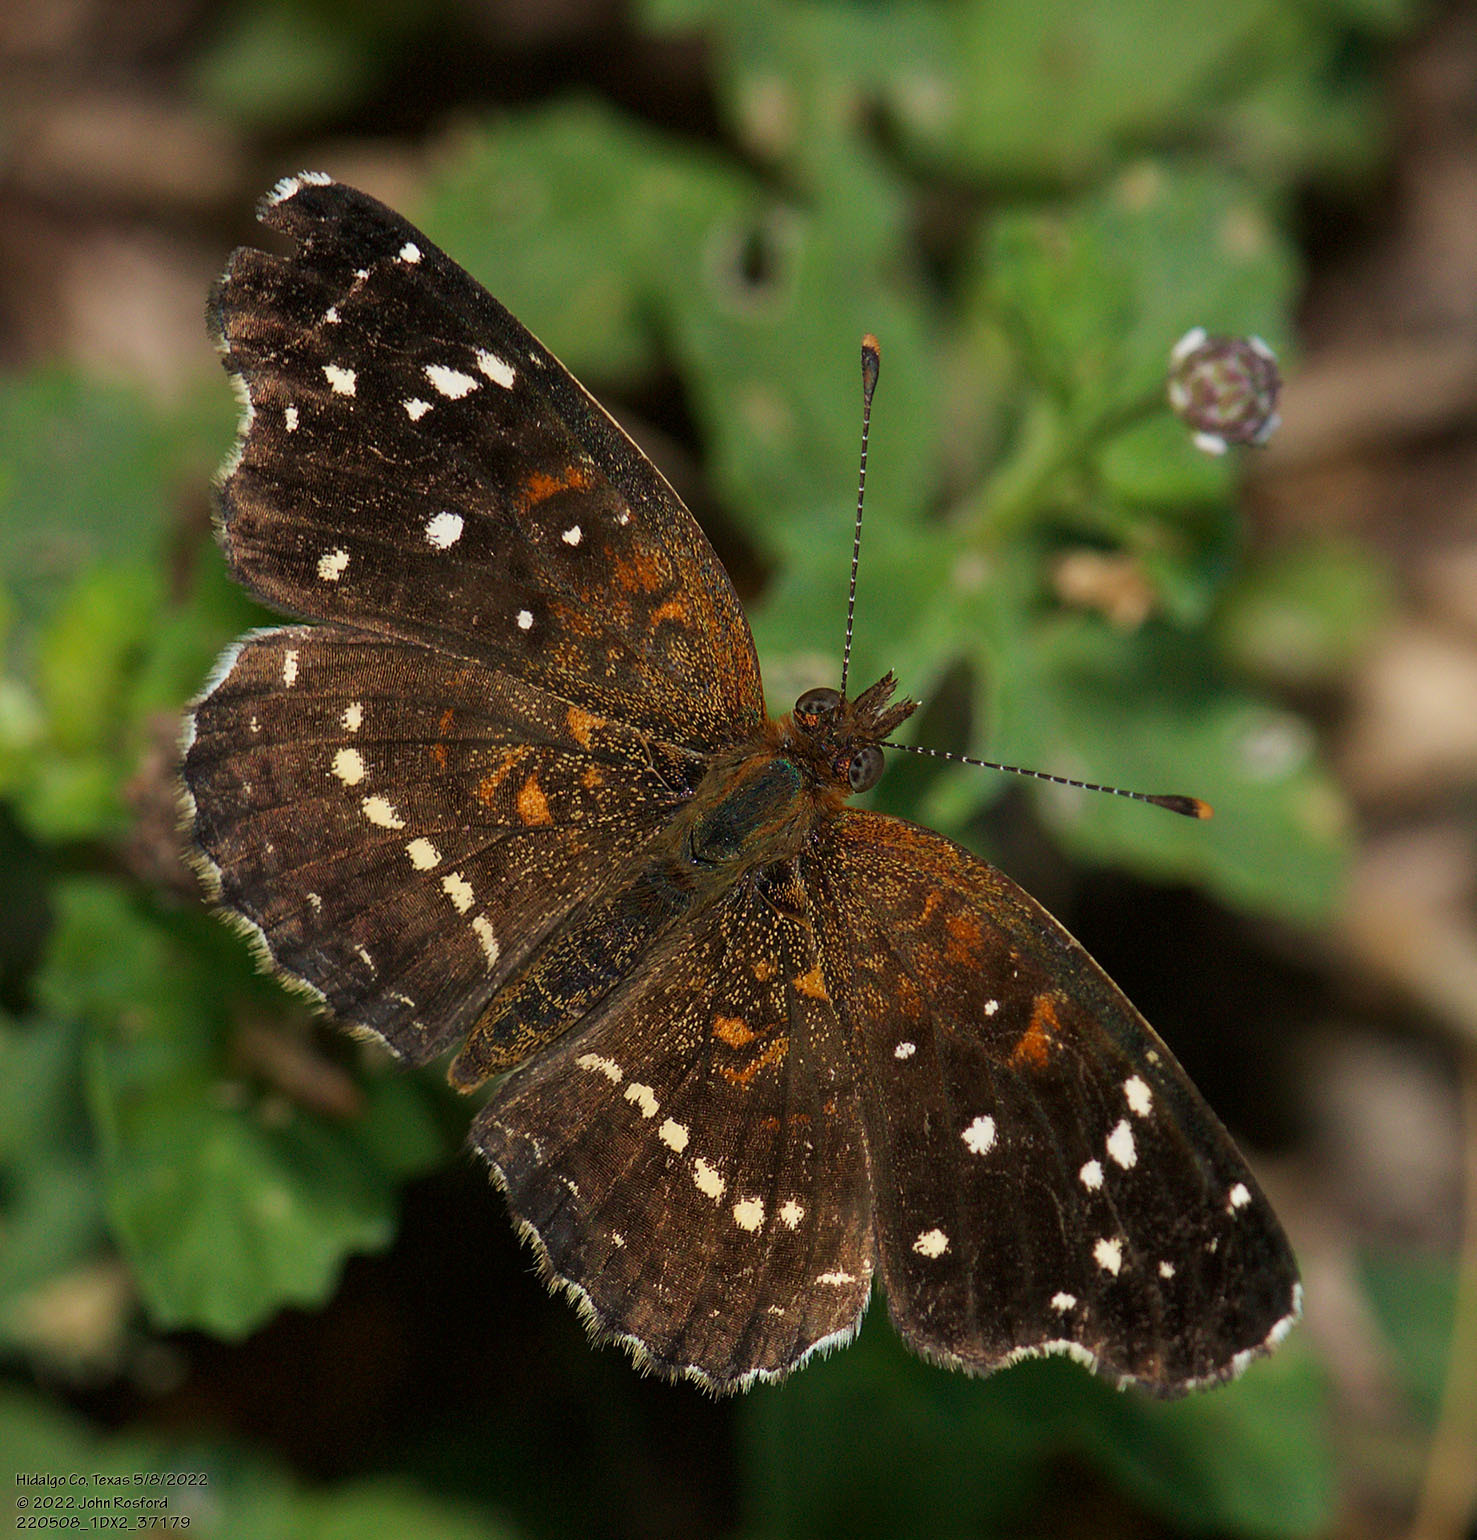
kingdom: Animalia
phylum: Arthropoda
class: Insecta
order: Lepidoptera
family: Nymphalidae
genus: Anthanassa
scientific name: Anthanassa texana
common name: Texan crescent
